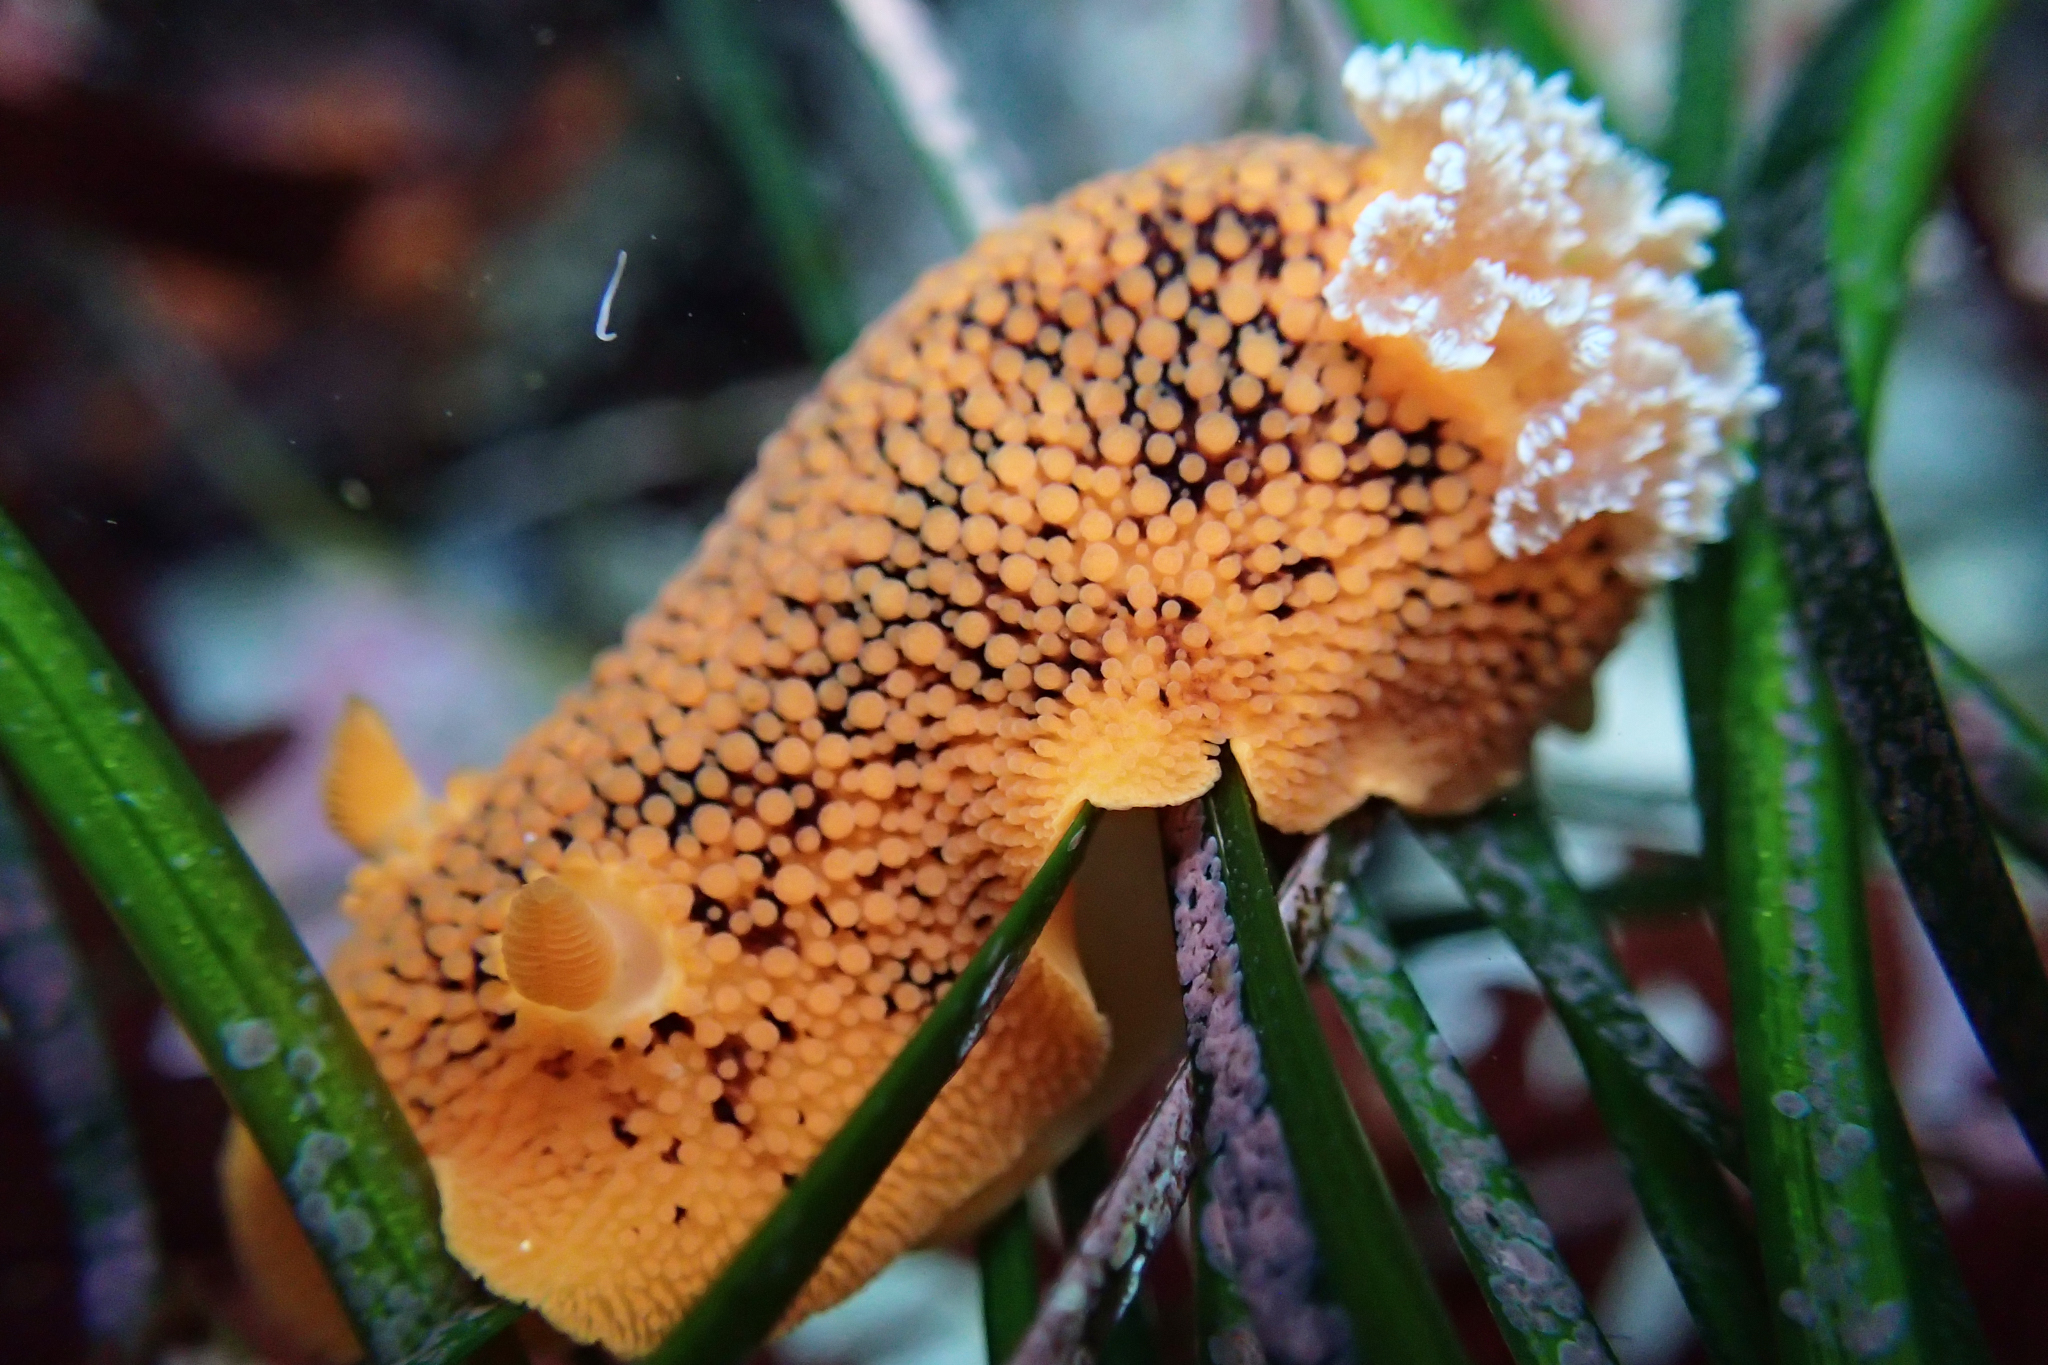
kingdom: Animalia
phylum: Mollusca
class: Gastropoda
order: Nudibranchia
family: Discodorididae
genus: Peltodoris
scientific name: Peltodoris nobilis
